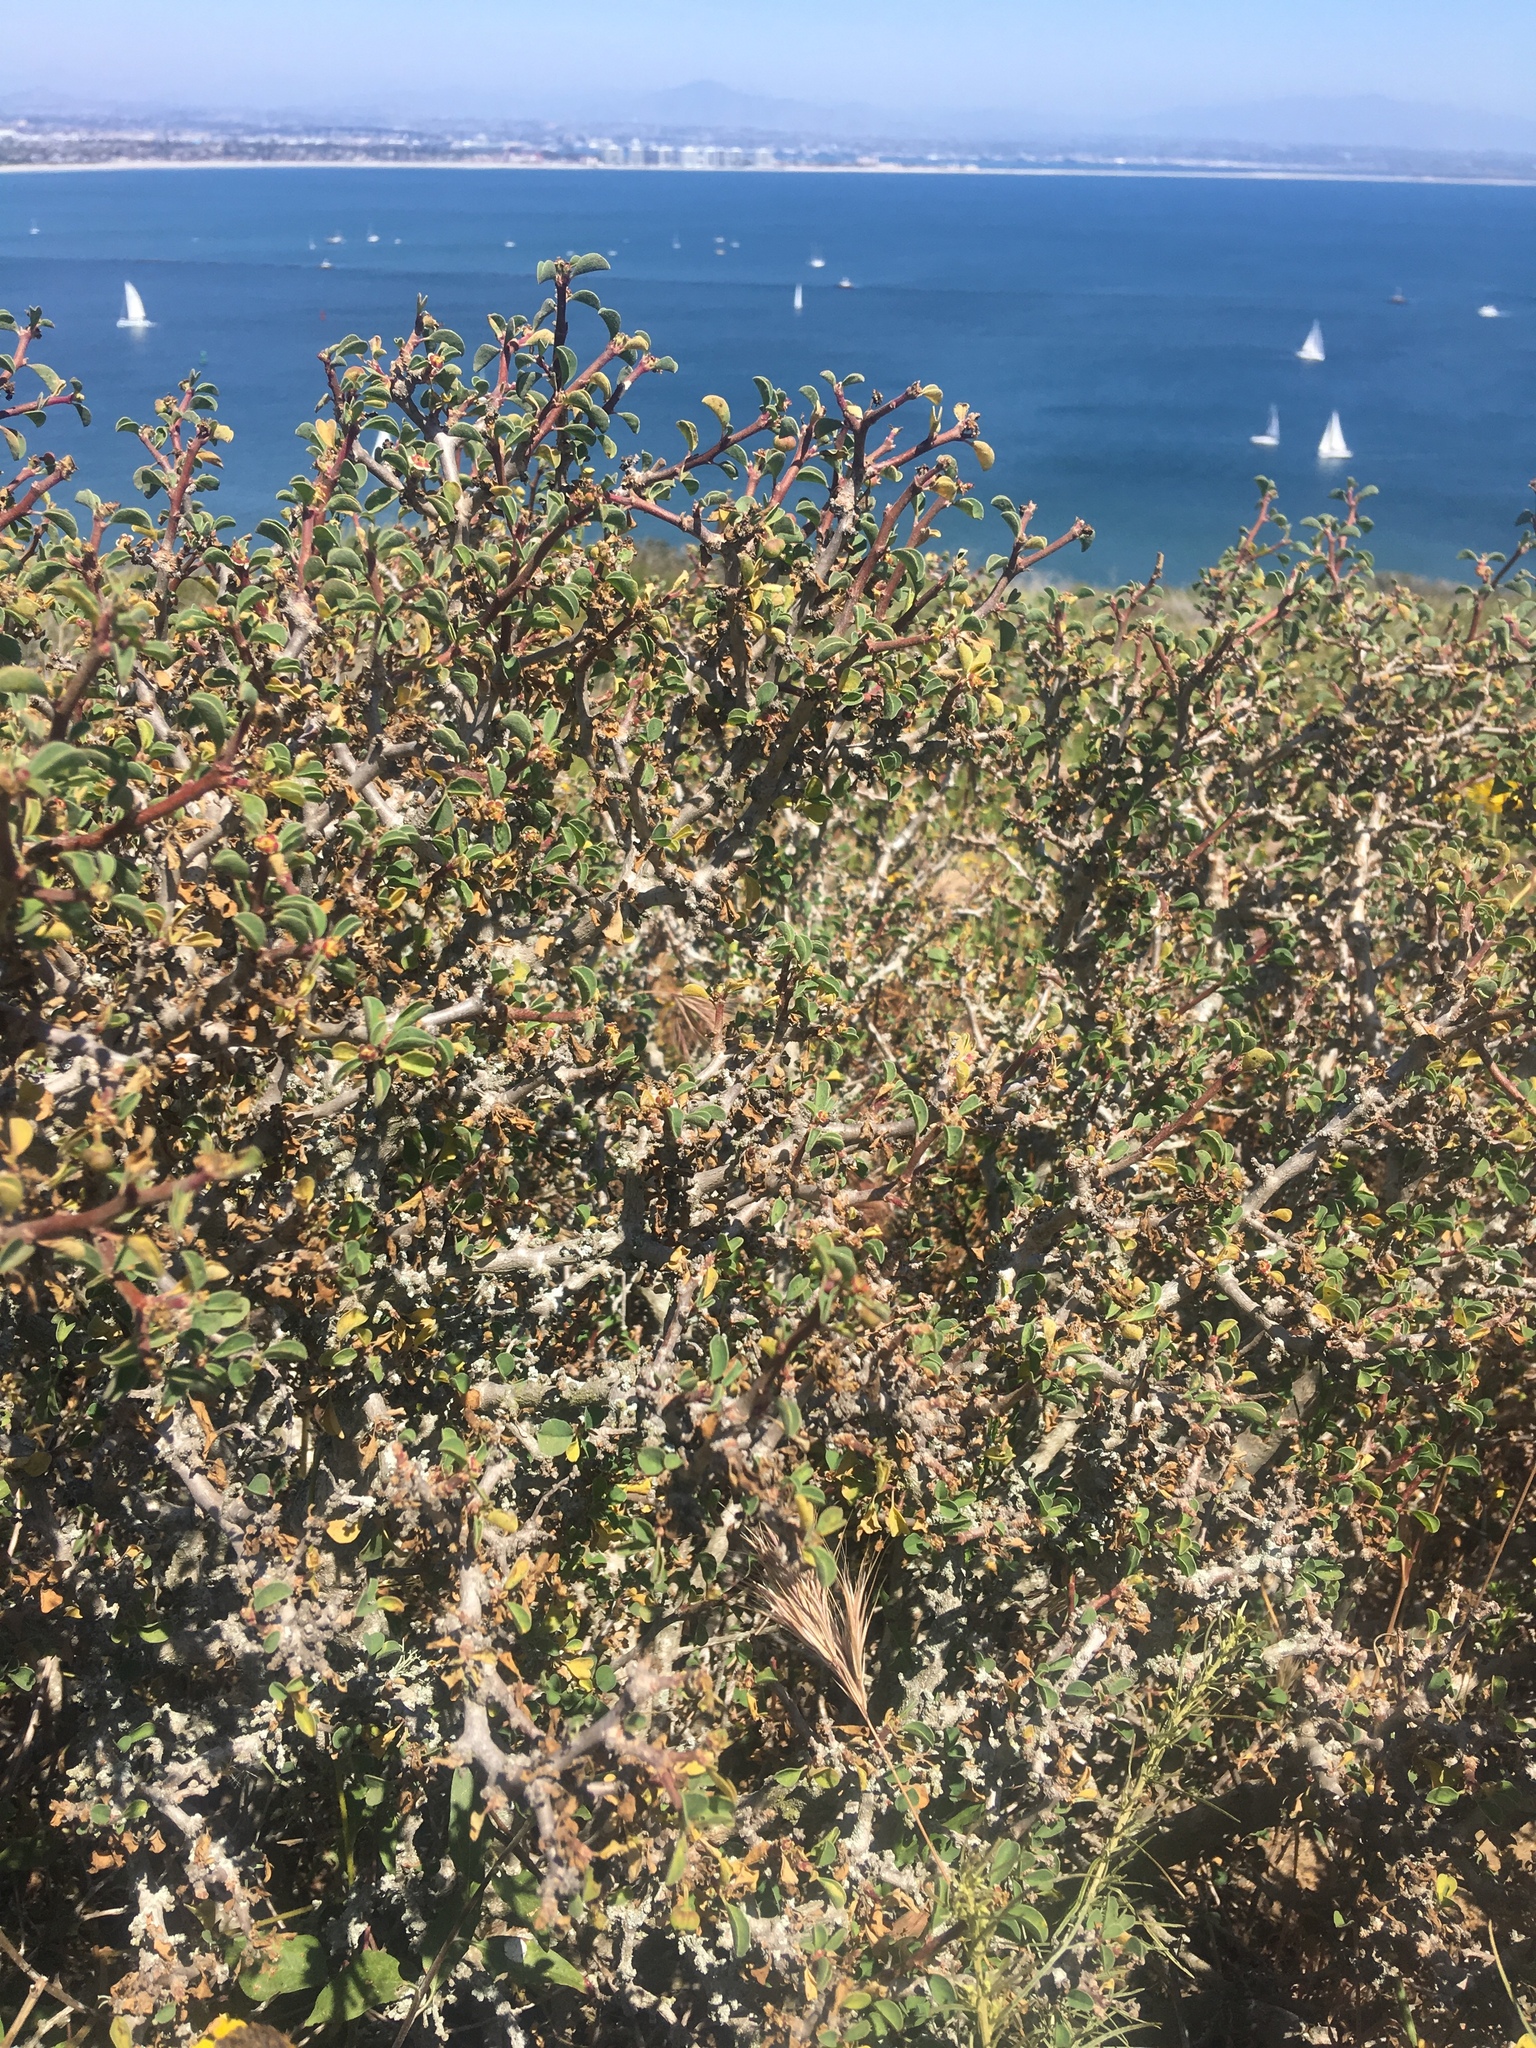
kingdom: Plantae
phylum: Tracheophyta
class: Magnoliopsida
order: Malpighiales
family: Euphorbiaceae
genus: Euphorbia
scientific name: Euphorbia misera
